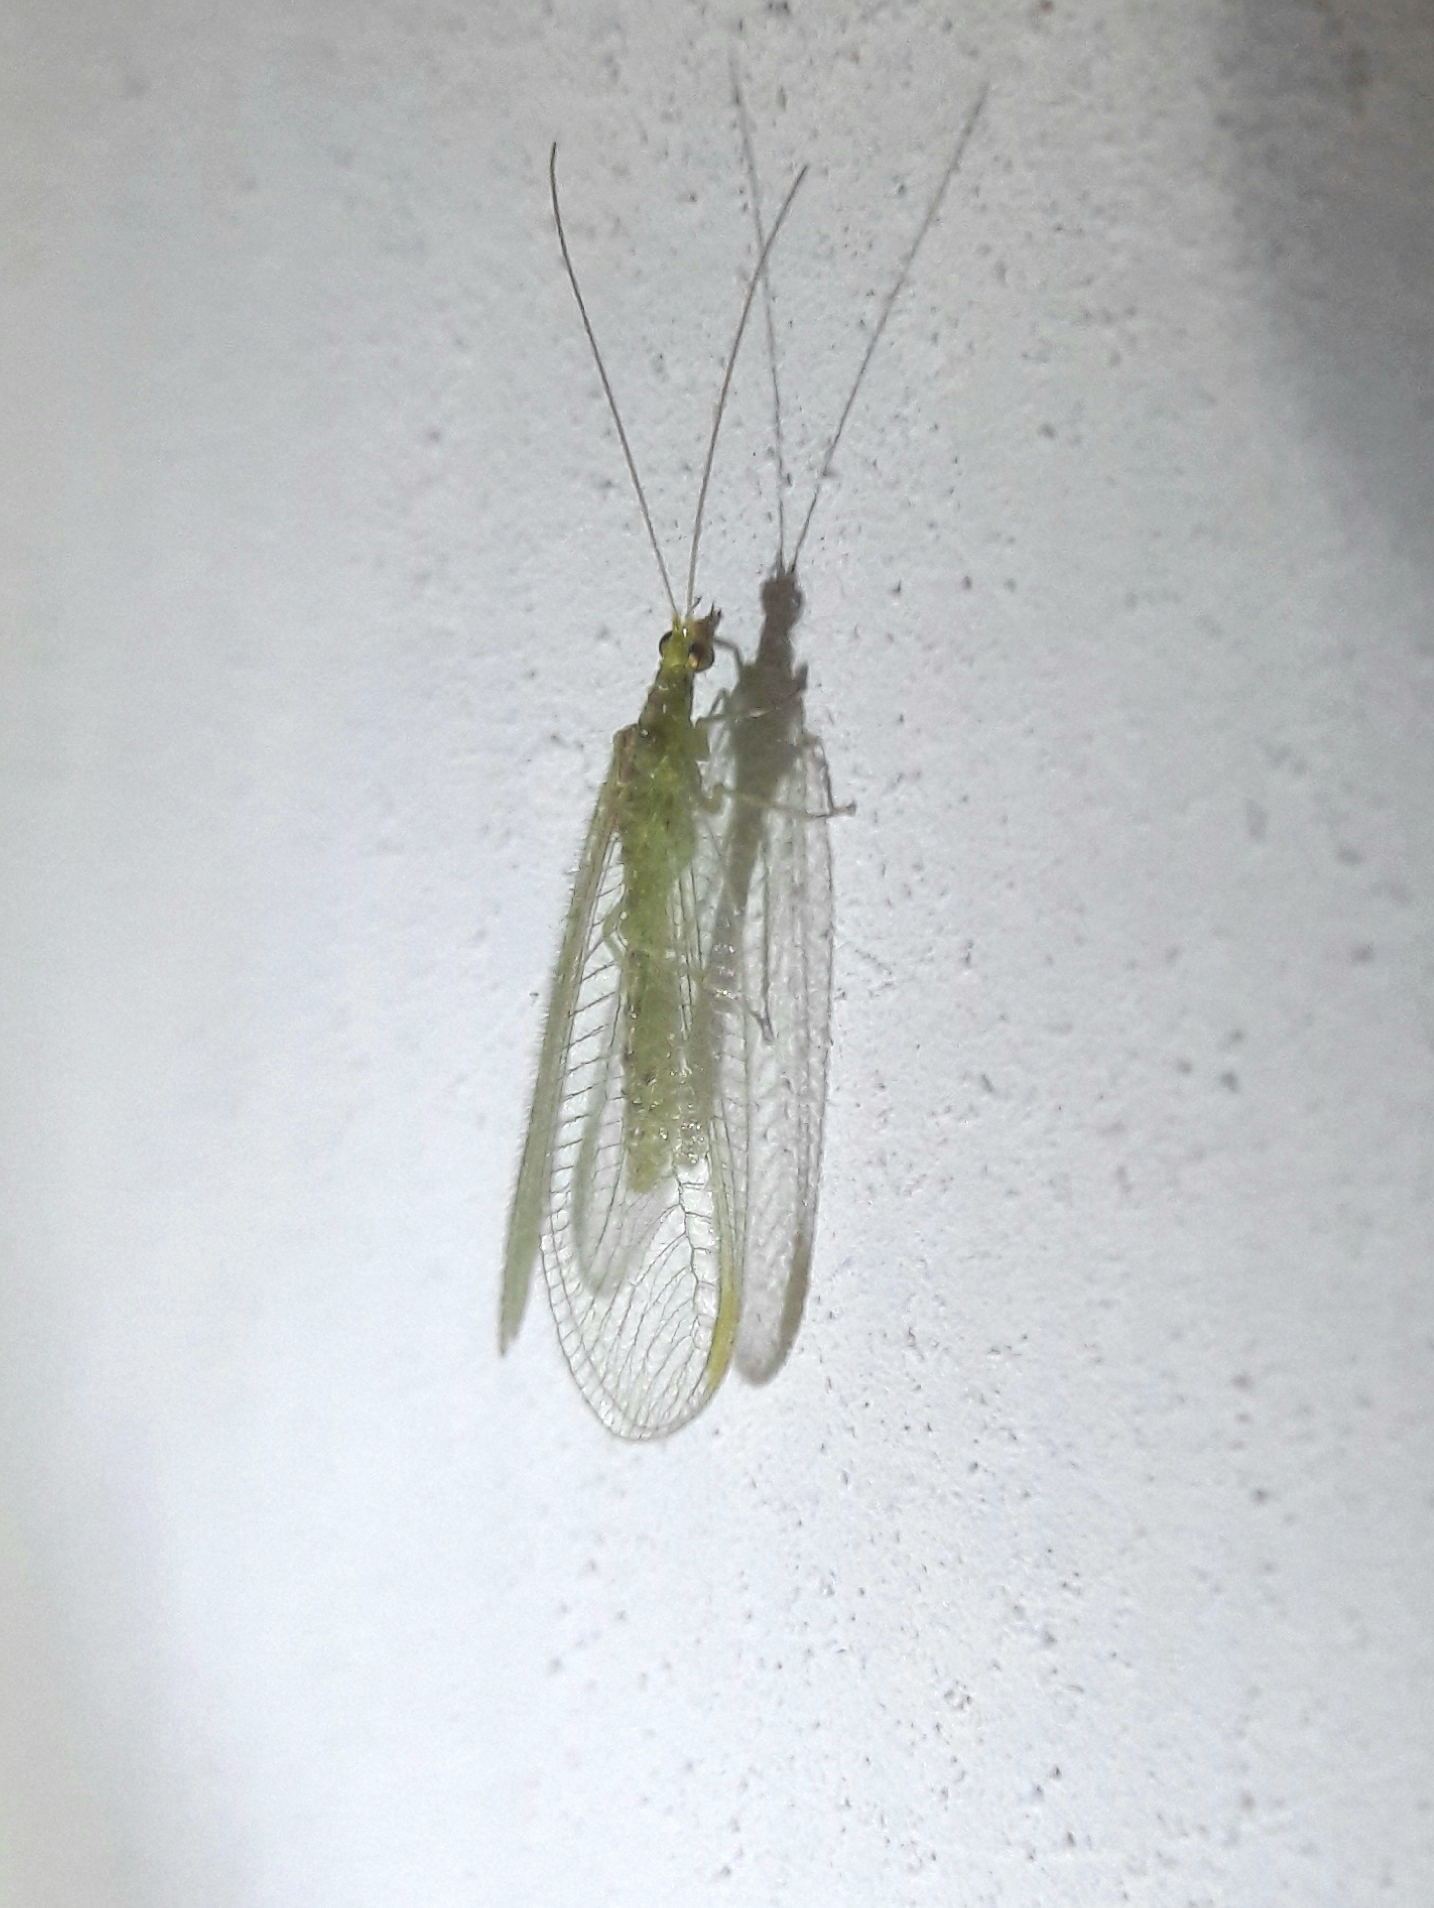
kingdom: Animalia
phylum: Arthropoda
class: Insecta
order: Neuroptera
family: Chrysopidae
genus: Chrysoperla
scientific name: Chrysoperla
